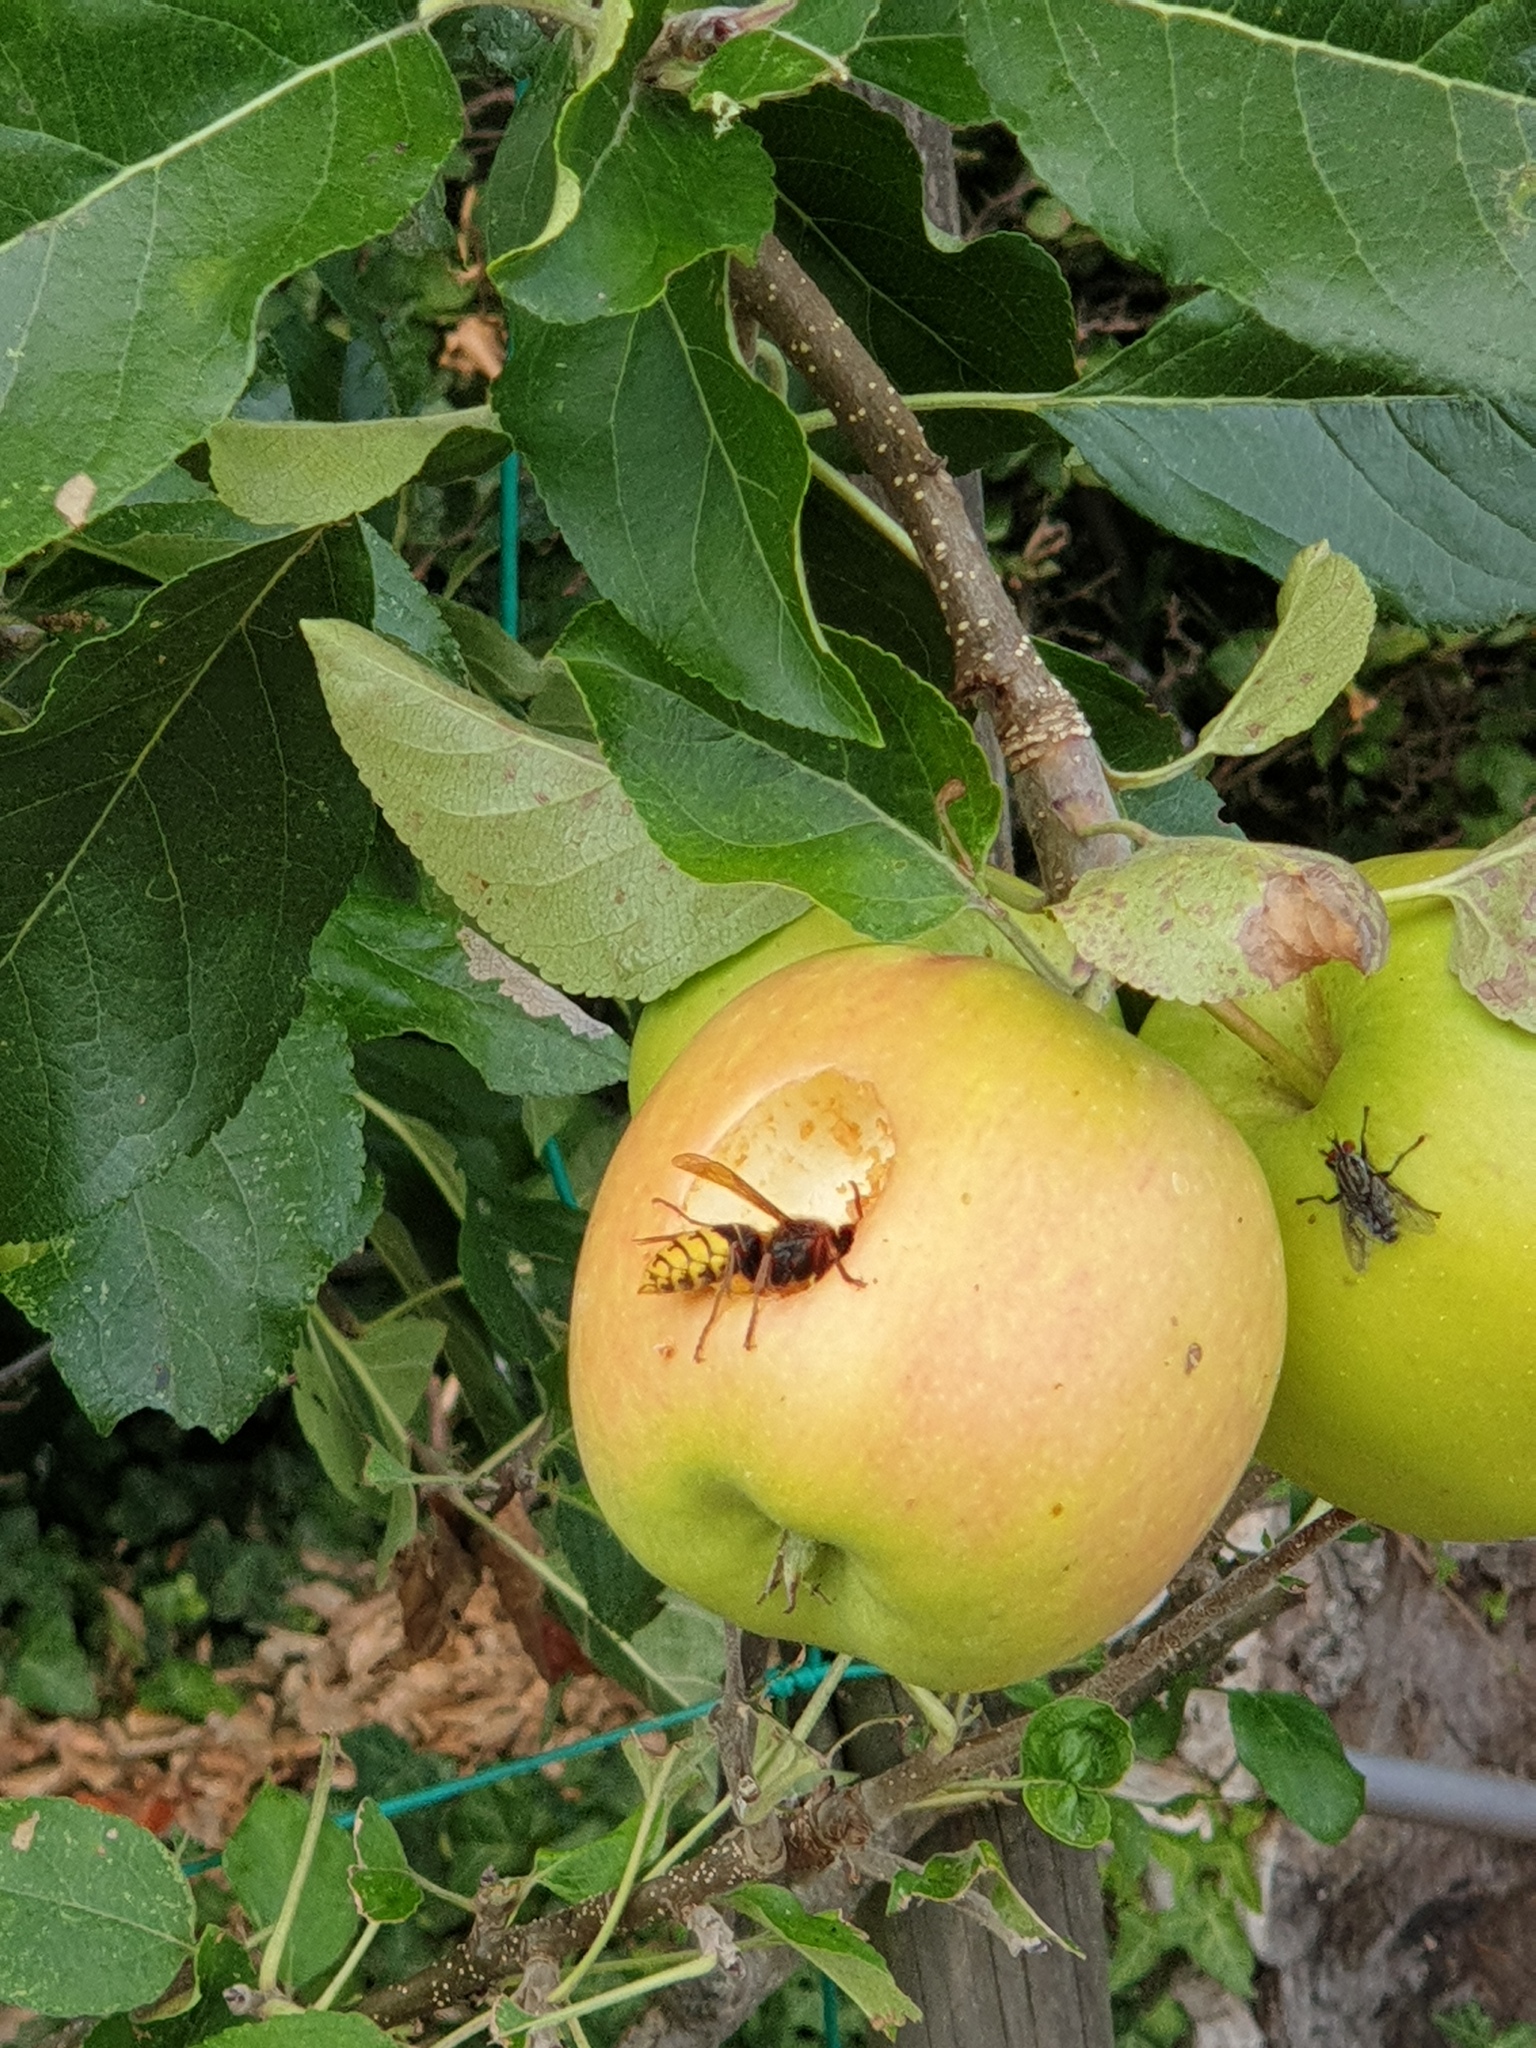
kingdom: Animalia
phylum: Arthropoda
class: Insecta
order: Hymenoptera
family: Vespidae
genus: Vespa
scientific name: Vespa crabro
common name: Hornet
